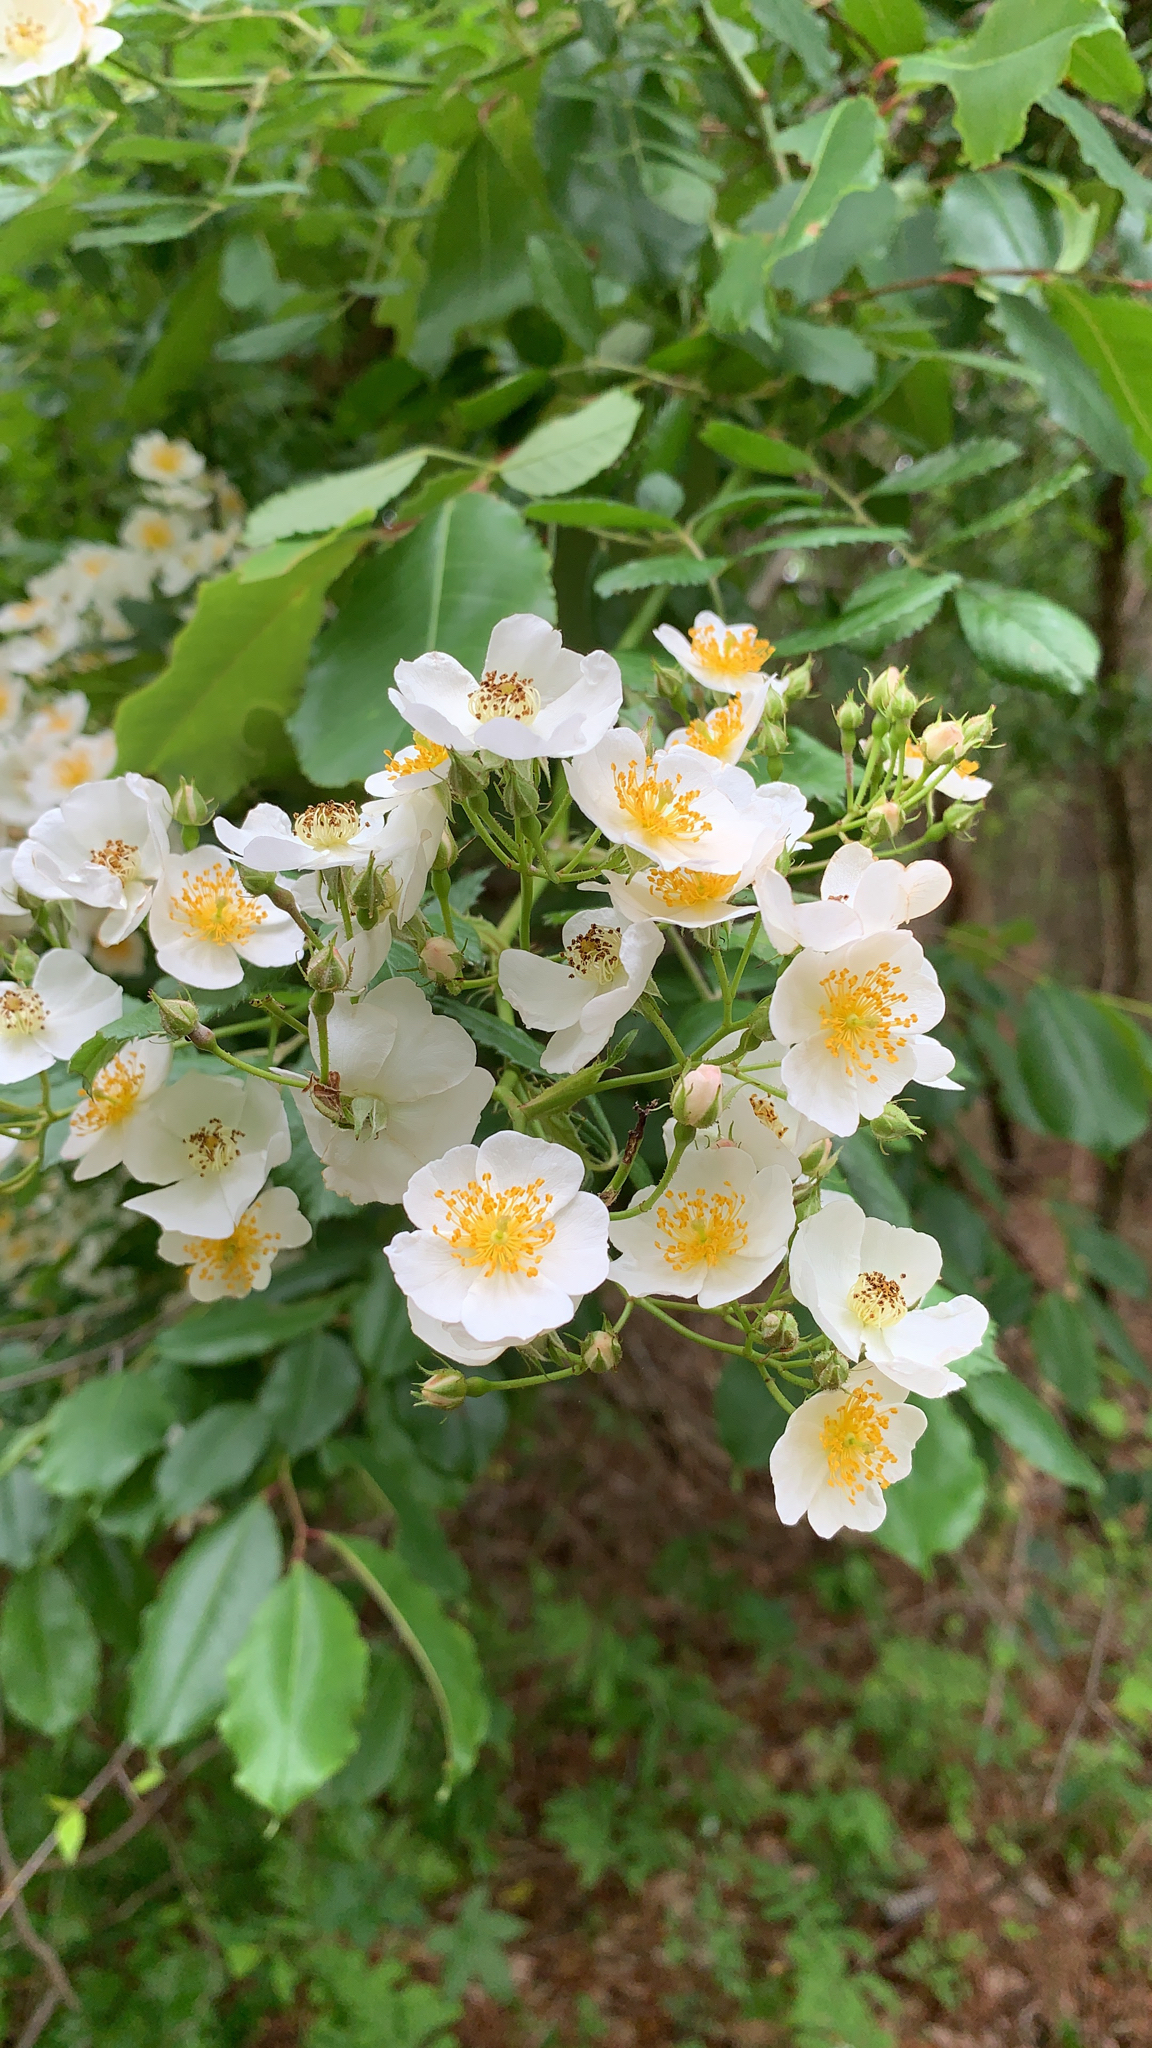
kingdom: Plantae
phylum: Tracheophyta
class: Magnoliopsida
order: Rosales
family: Rosaceae
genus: Rosa
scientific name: Rosa multiflora
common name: Multiflora rose
